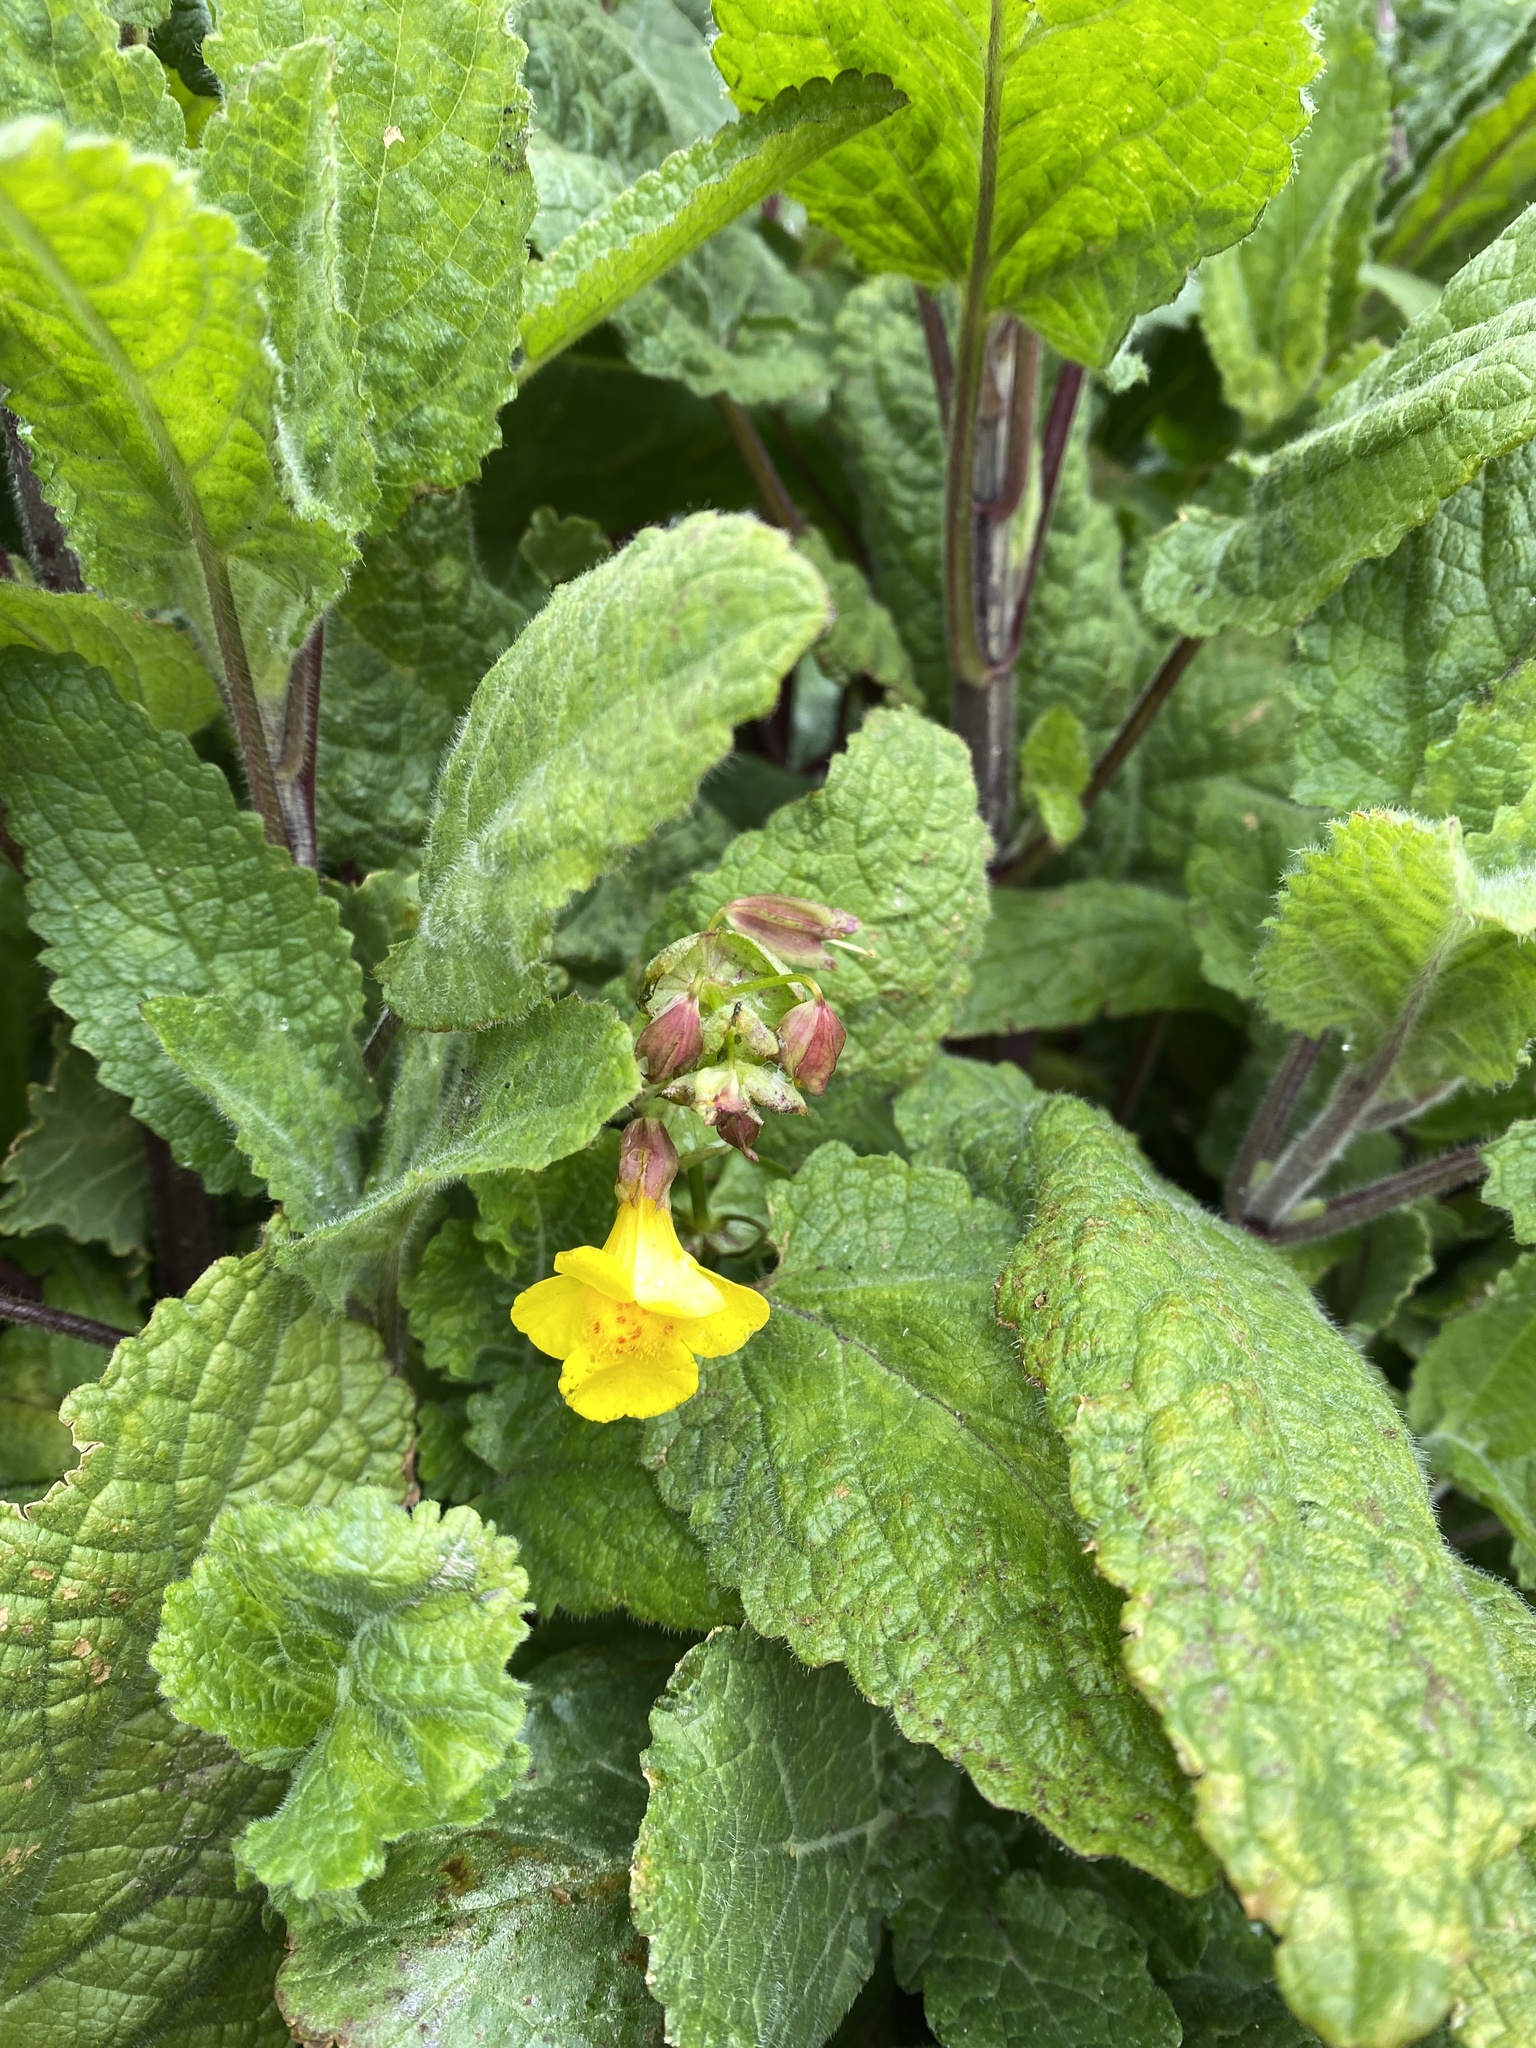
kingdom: Plantae
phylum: Tracheophyta
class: Magnoliopsida
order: Lamiales
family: Phrymaceae
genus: Erythranthe
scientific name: Erythranthe guttata
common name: Monkeyflower
